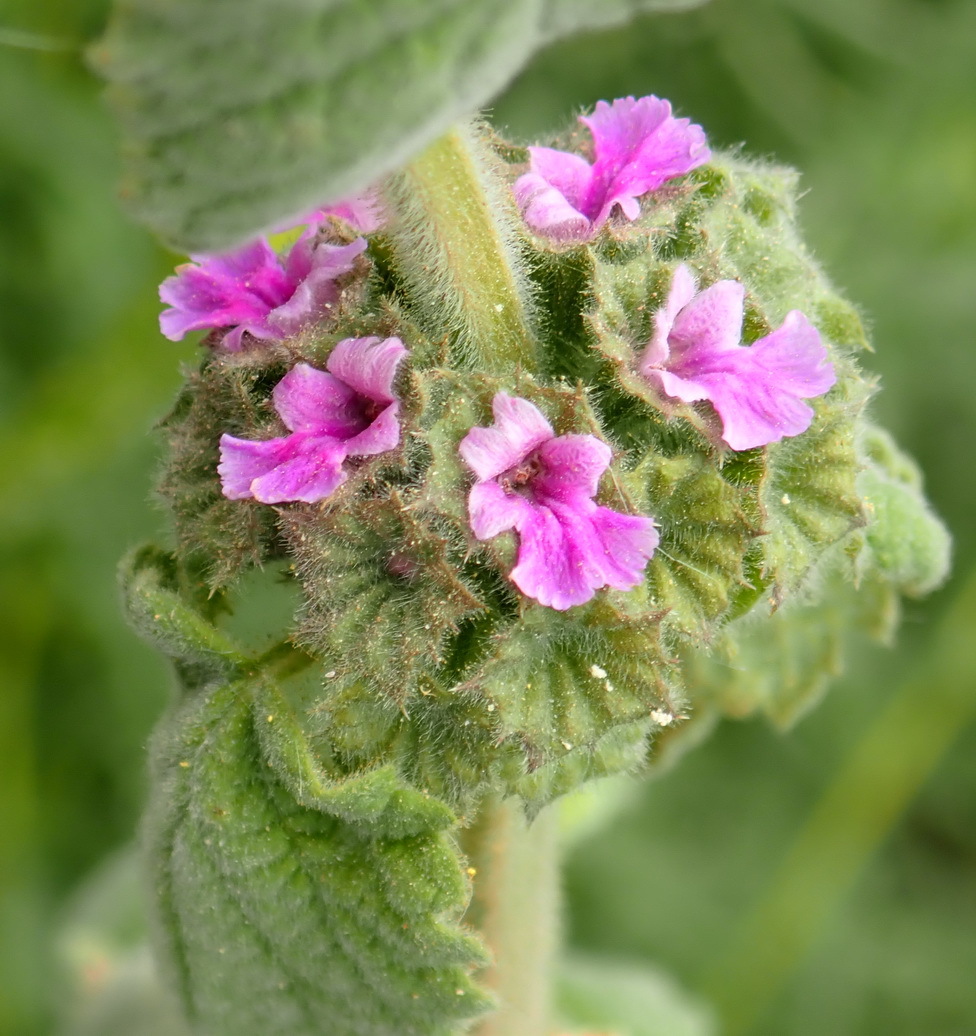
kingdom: Plantae
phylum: Tracheophyta
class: Magnoliopsida
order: Lamiales
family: Lamiaceae
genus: Pseudodictamnus
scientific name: Pseudodictamnus africanus
